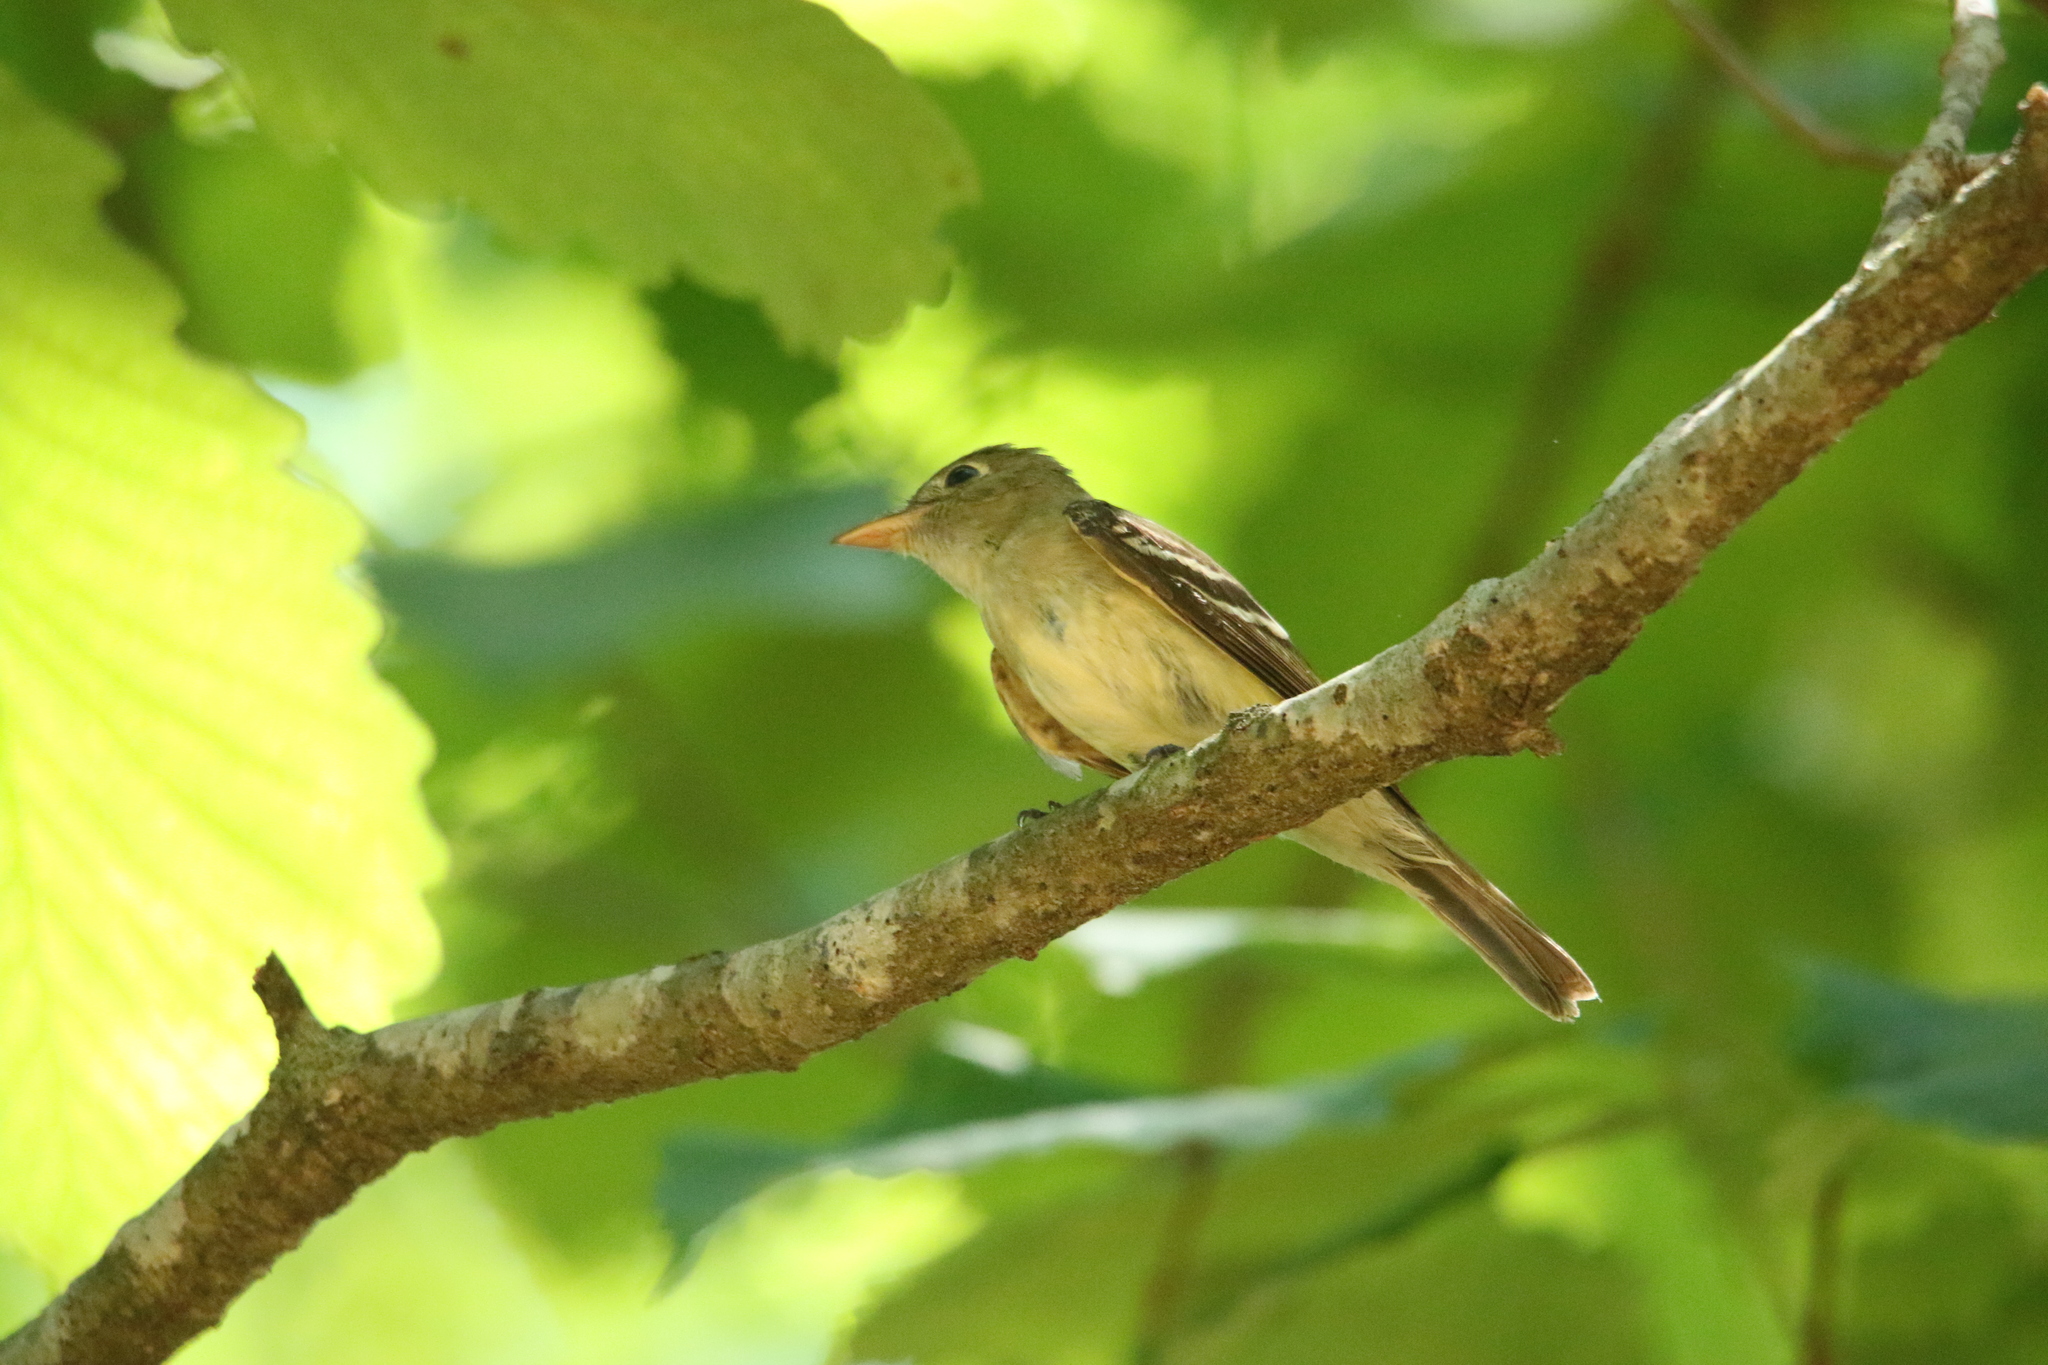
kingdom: Animalia
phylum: Chordata
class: Aves
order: Passeriformes
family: Tyrannidae
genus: Empidonax
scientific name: Empidonax virescens
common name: Acadian flycatcher
